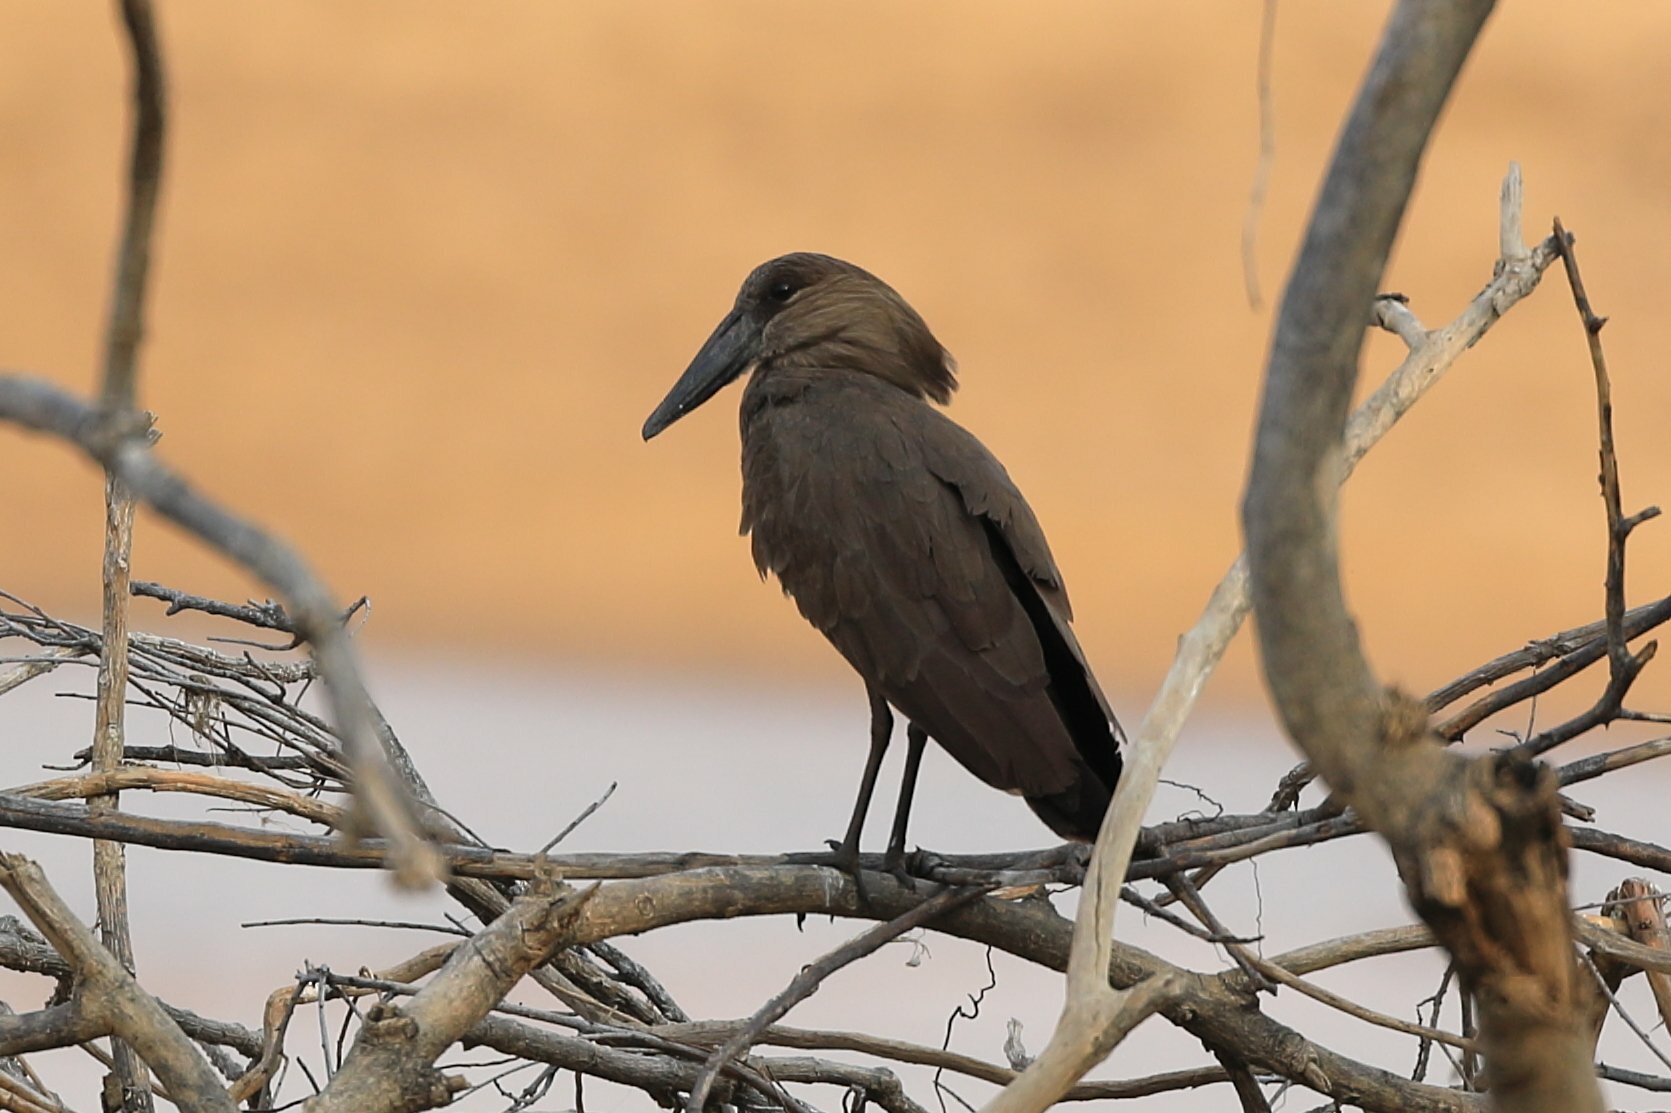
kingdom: Animalia
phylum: Chordata
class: Aves
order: Pelecaniformes
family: Scopidae
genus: Scopus
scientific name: Scopus umbretta
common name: Hamerkop
